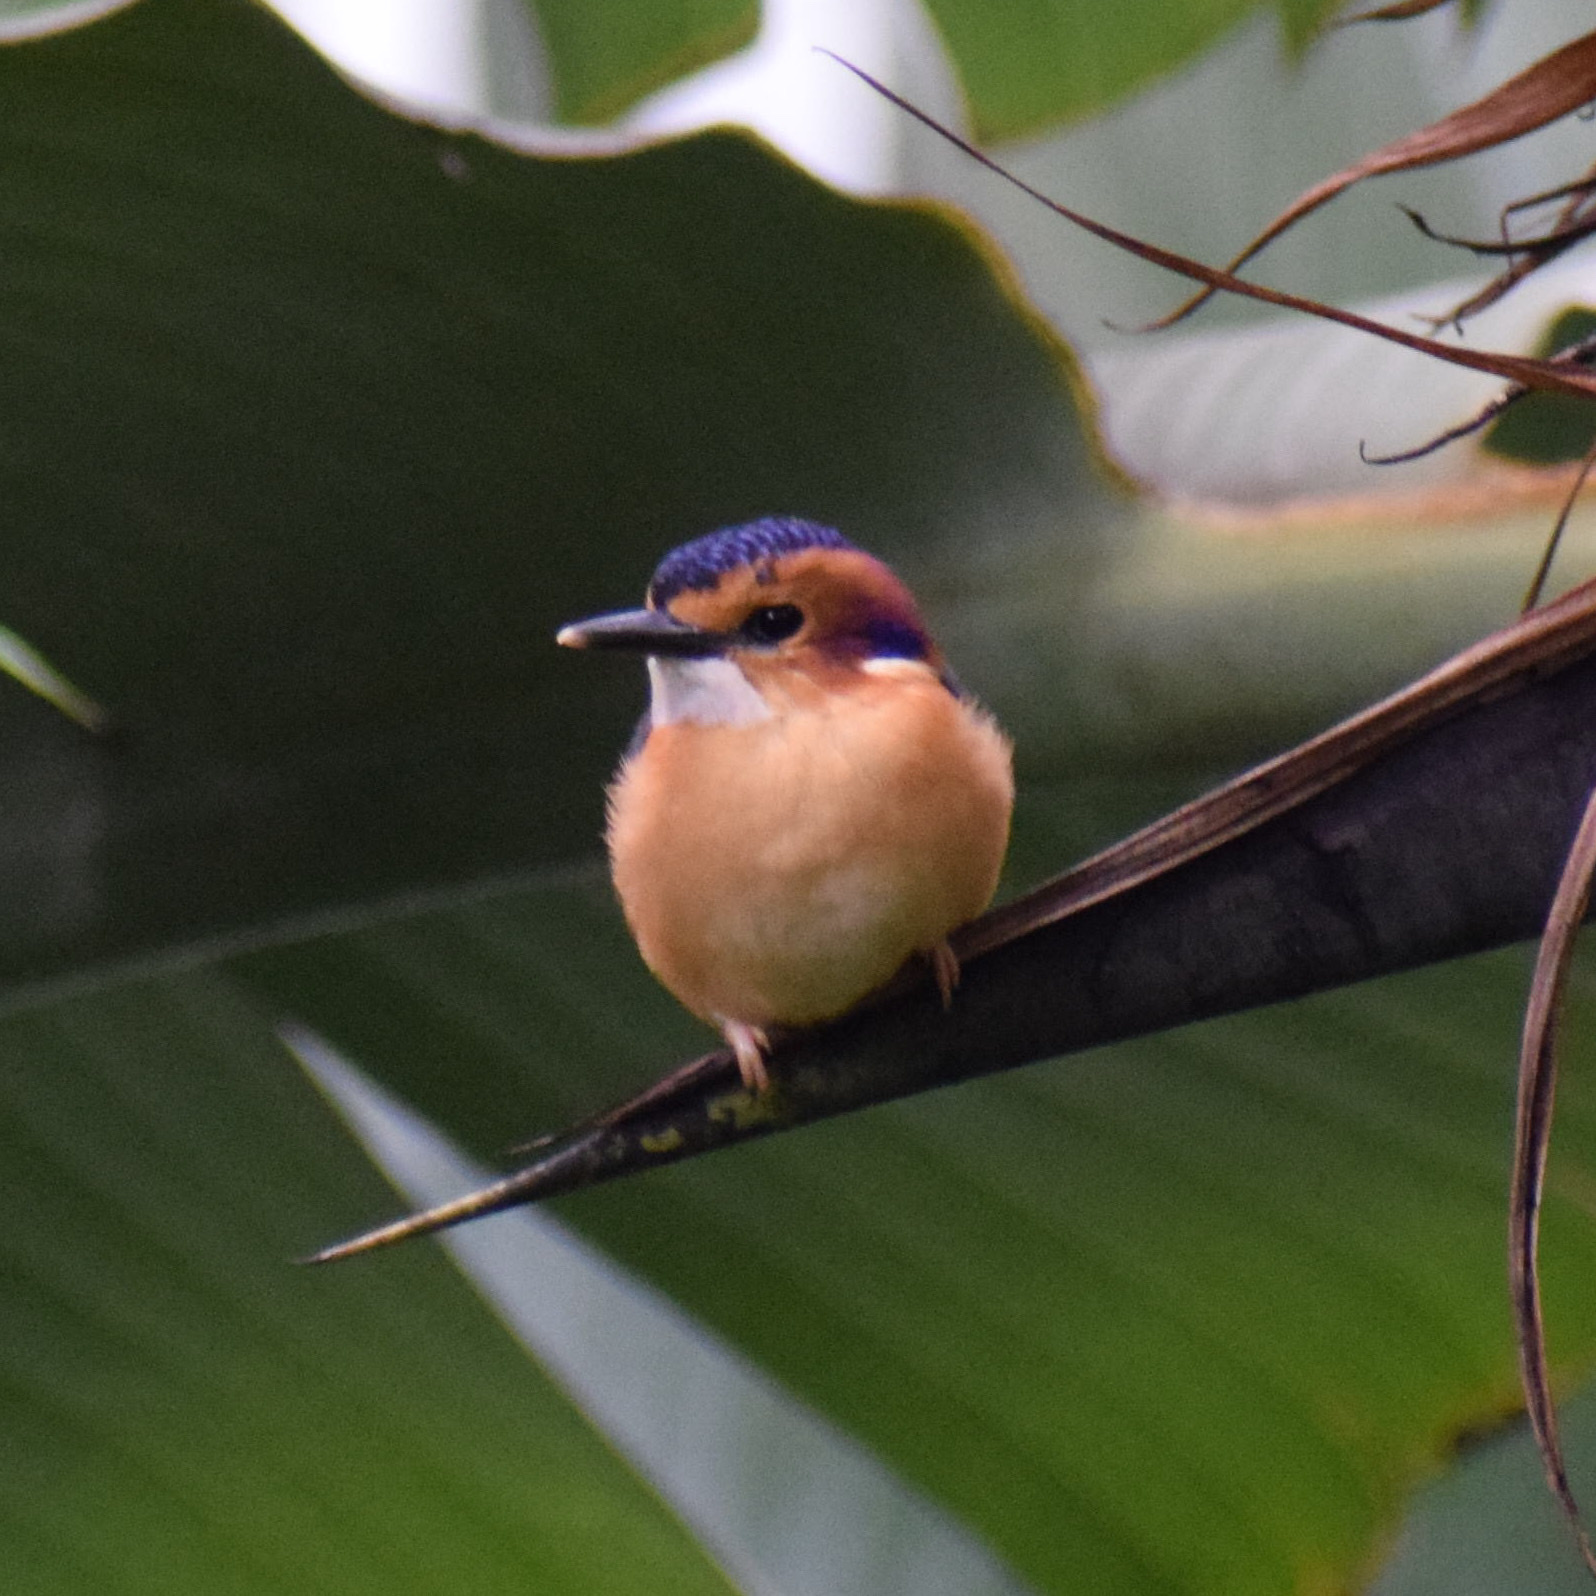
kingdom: Animalia
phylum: Chordata
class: Aves
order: Coraciiformes
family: Alcedinidae
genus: Ispidina
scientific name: Ispidina picta
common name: African pygmy-kingfisher
